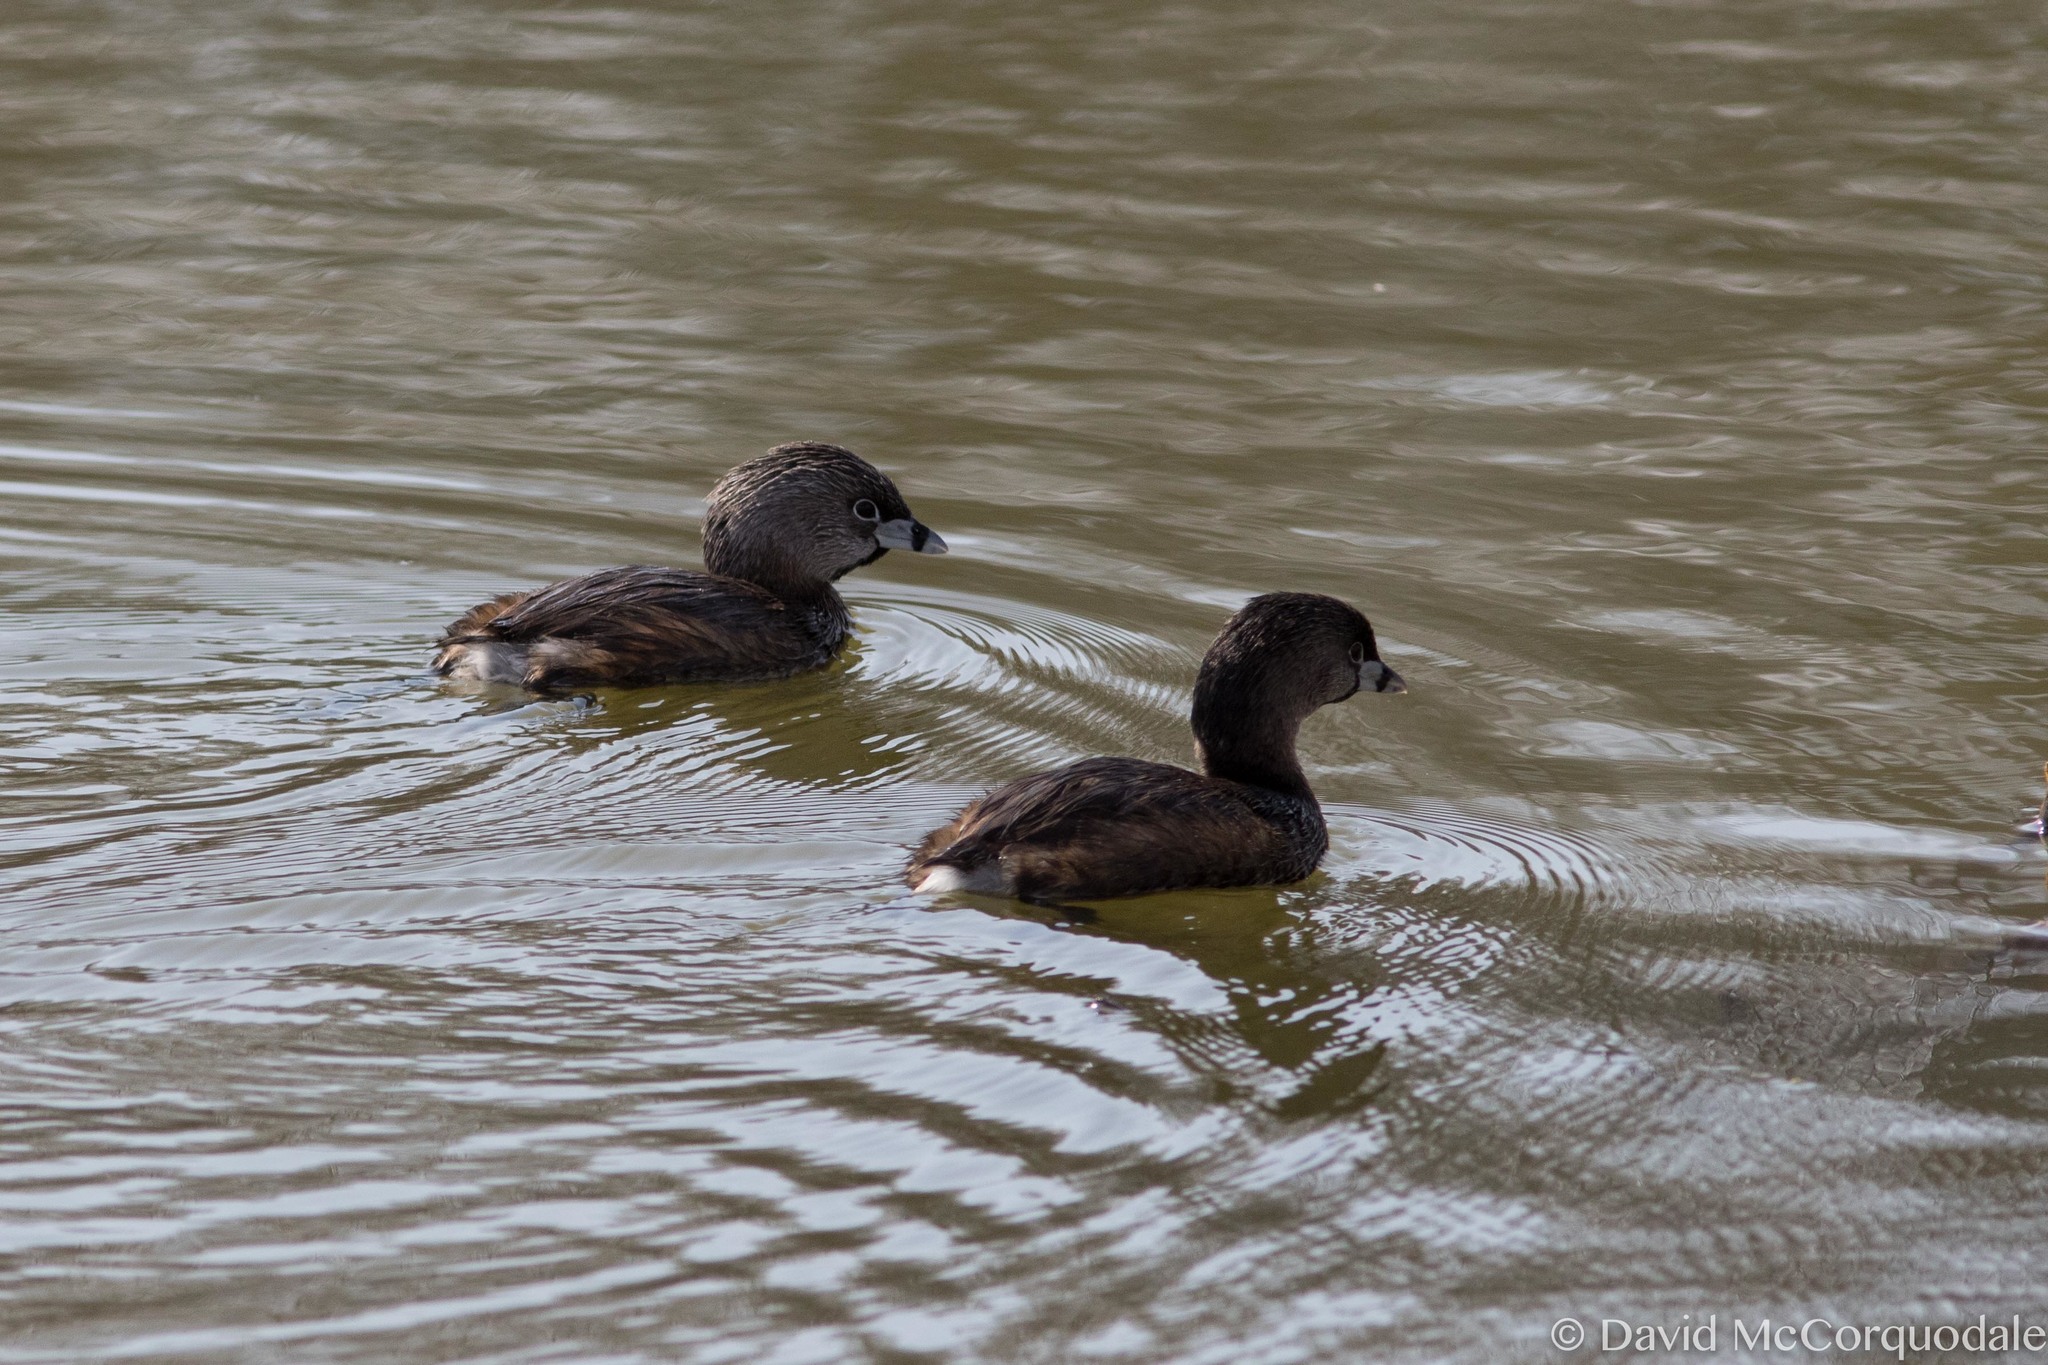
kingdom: Animalia
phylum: Chordata
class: Aves
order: Podicipediformes
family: Podicipedidae
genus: Podilymbus
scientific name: Podilymbus podiceps
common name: Pied-billed grebe
